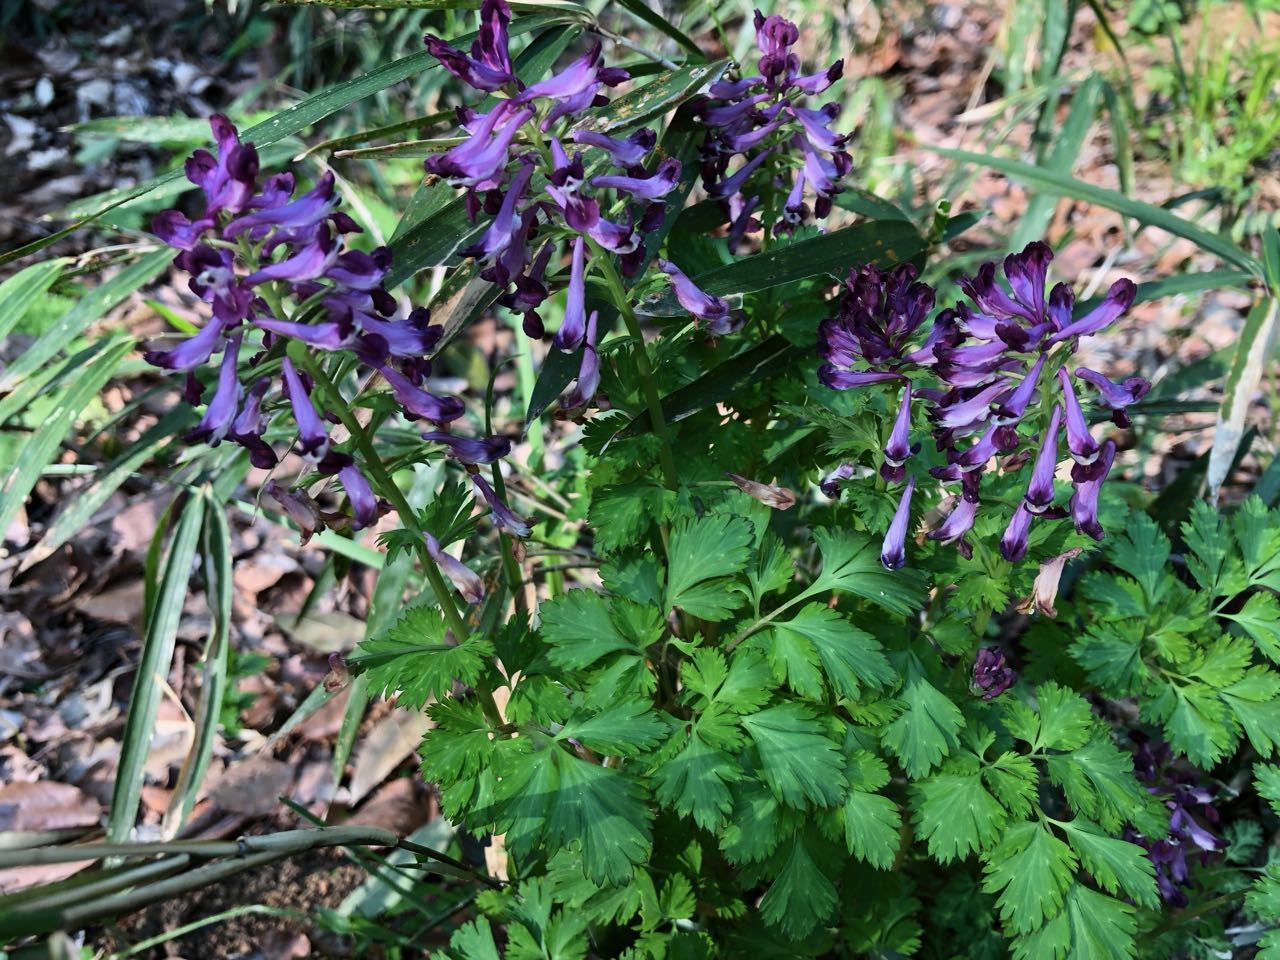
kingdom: Plantae
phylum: Tracheophyta
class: Magnoliopsida
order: Ranunculales
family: Papaveraceae
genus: Corydalis
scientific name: Corydalis incisa
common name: Incised fumewort
